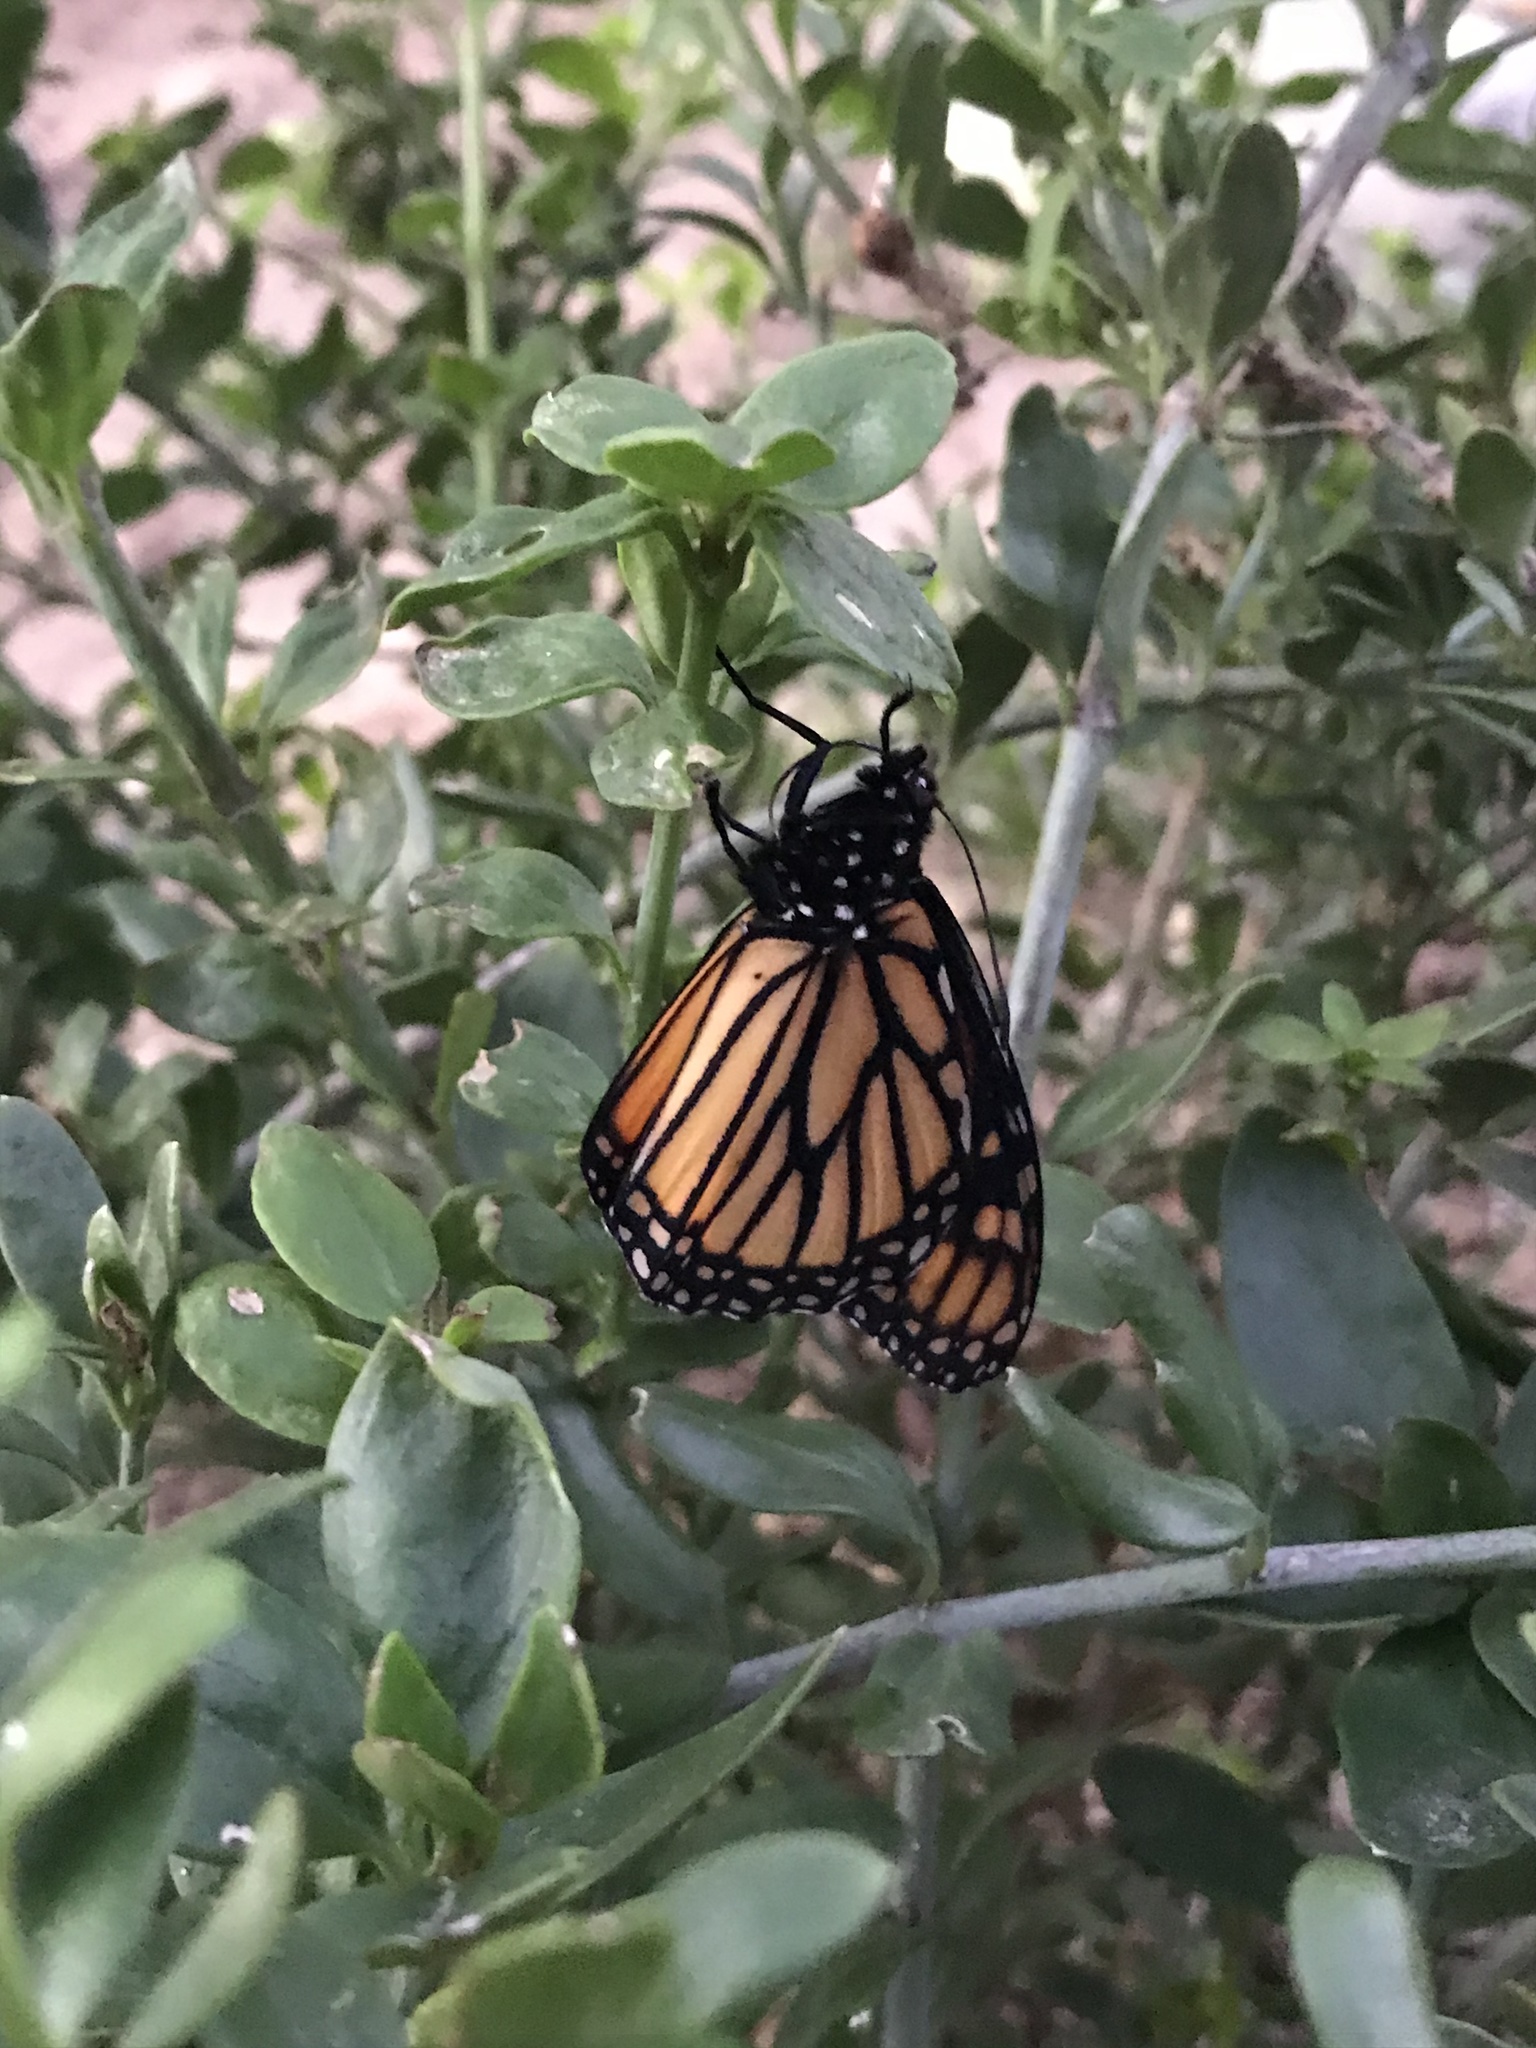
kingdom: Animalia
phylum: Arthropoda
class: Insecta
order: Lepidoptera
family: Nymphalidae
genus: Danaus
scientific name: Danaus plexippus
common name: Monarch
